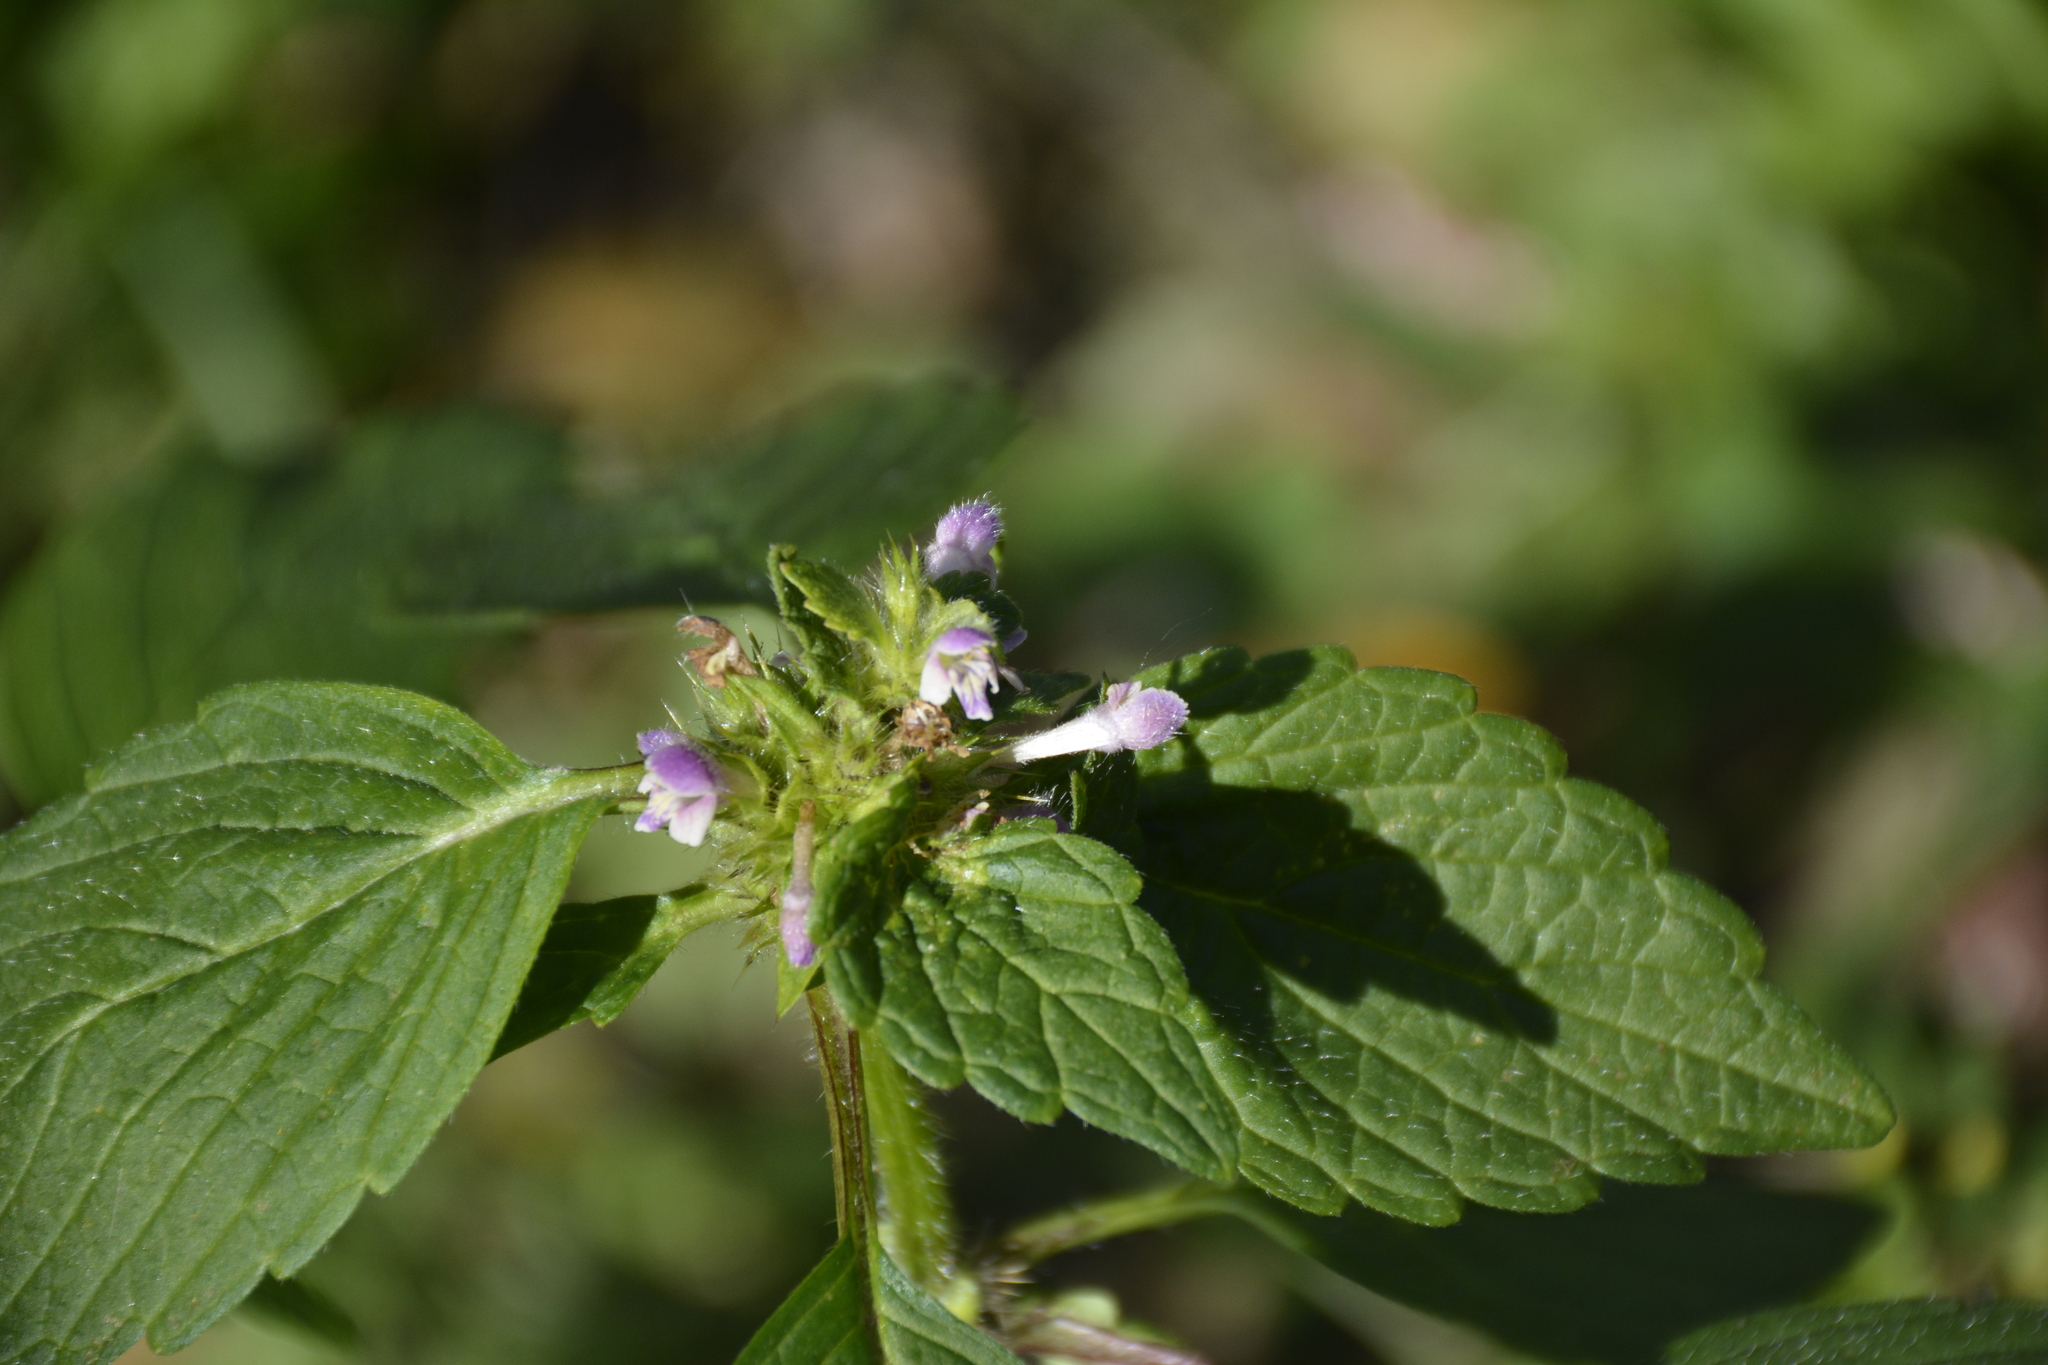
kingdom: Plantae
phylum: Tracheophyta
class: Magnoliopsida
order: Lamiales
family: Lamiaceae
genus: Galeopsis
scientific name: Galeopsis bifida
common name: Bifid hemp-nettle
